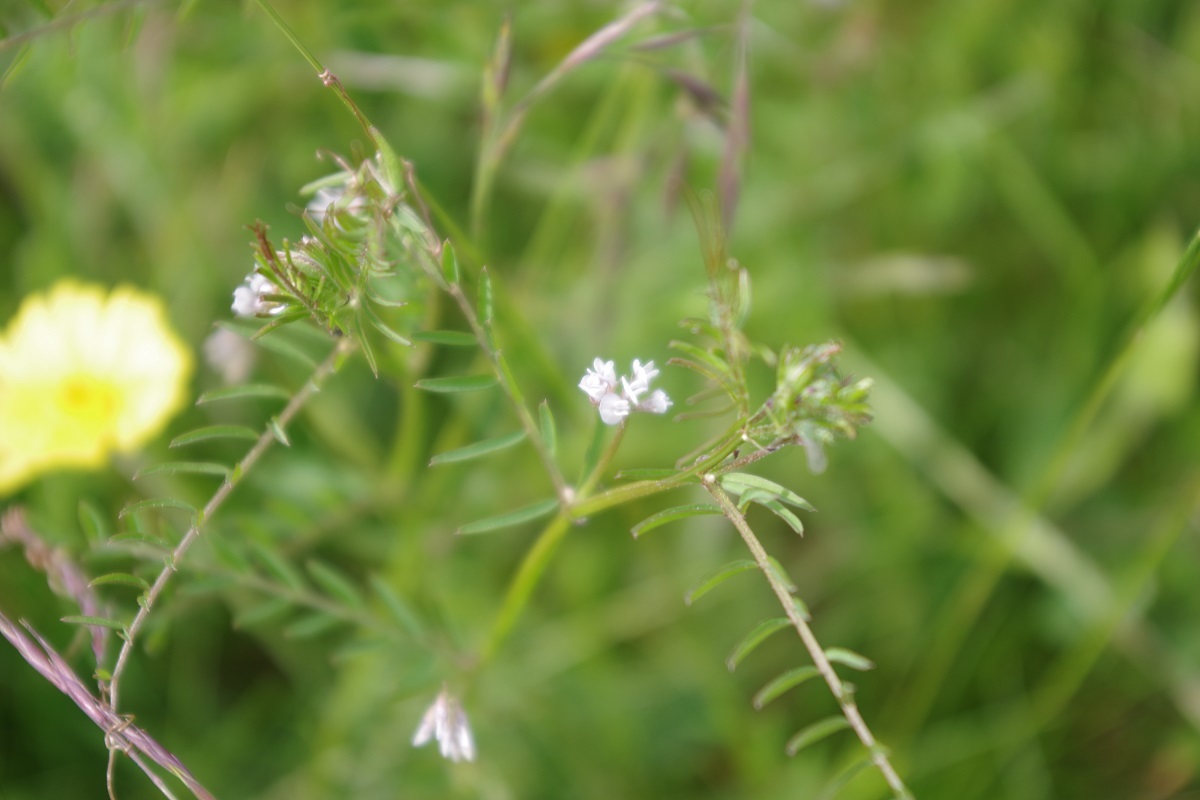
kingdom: Plantae
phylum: Tracheophyta
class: Magnoliopsida
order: Fabales
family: Fabaceae
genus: Vicia
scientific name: Vicia hirsuta
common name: Tiny vetch
